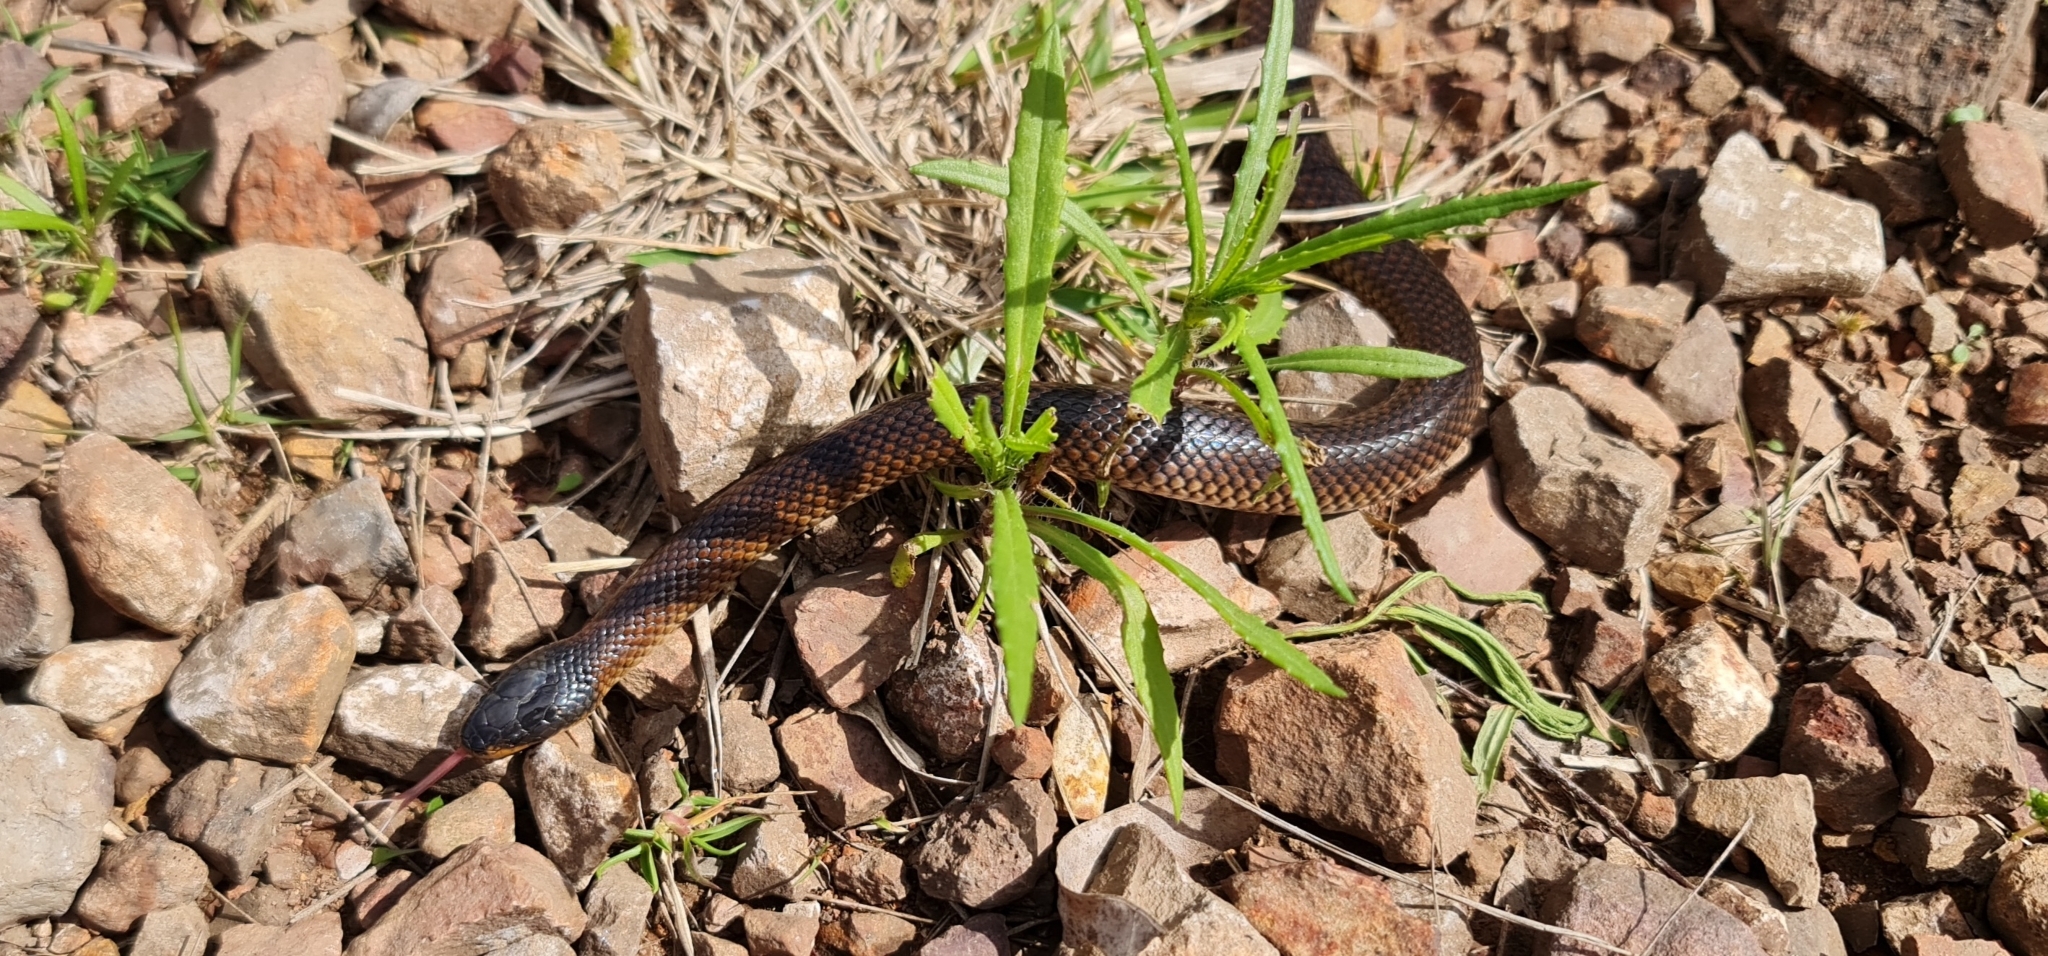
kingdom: Animalia
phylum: Chordata
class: Squamata
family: Elapidae
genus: Suta
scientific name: Suta dwyeri
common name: Variable black-naped snake
